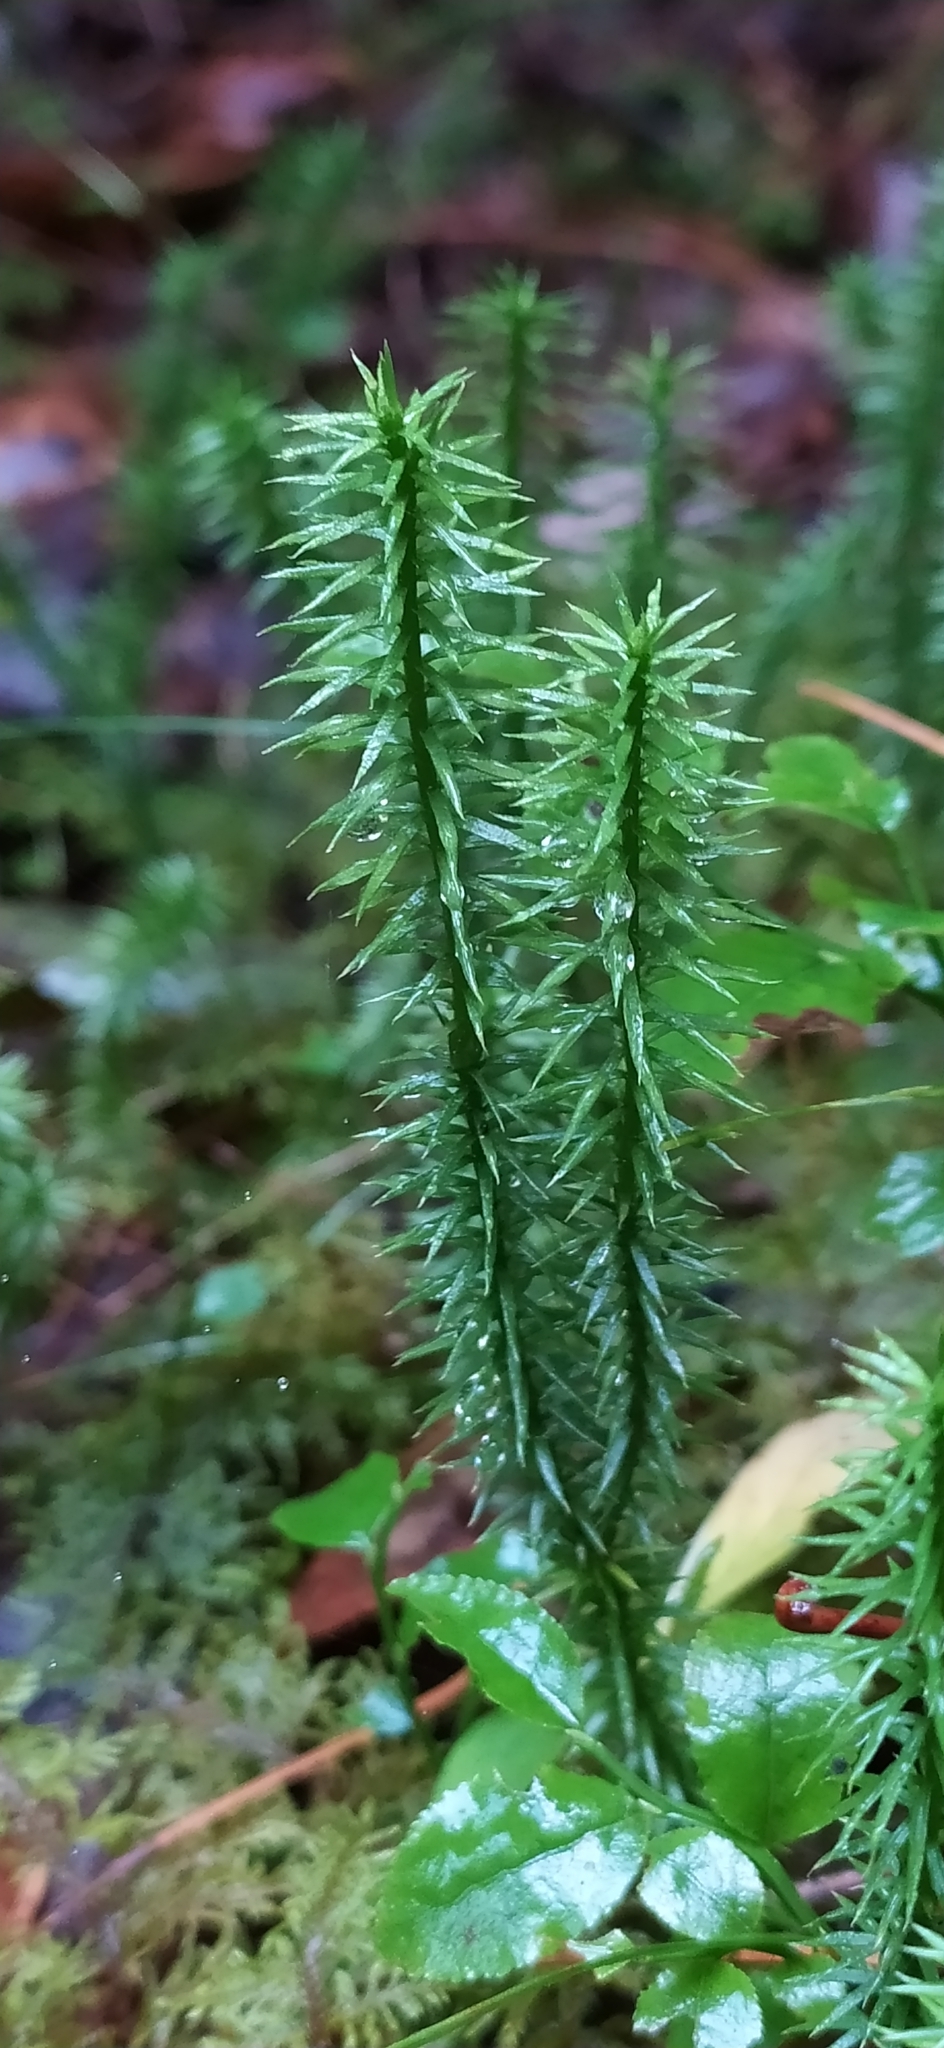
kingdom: Plantae
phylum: Tracheophyta
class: Lycopodiopsida
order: Lycopodiales
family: Lycopodiaceae
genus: Spinulum
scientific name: Spinulum annotinum
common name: Interrupted club-moss
